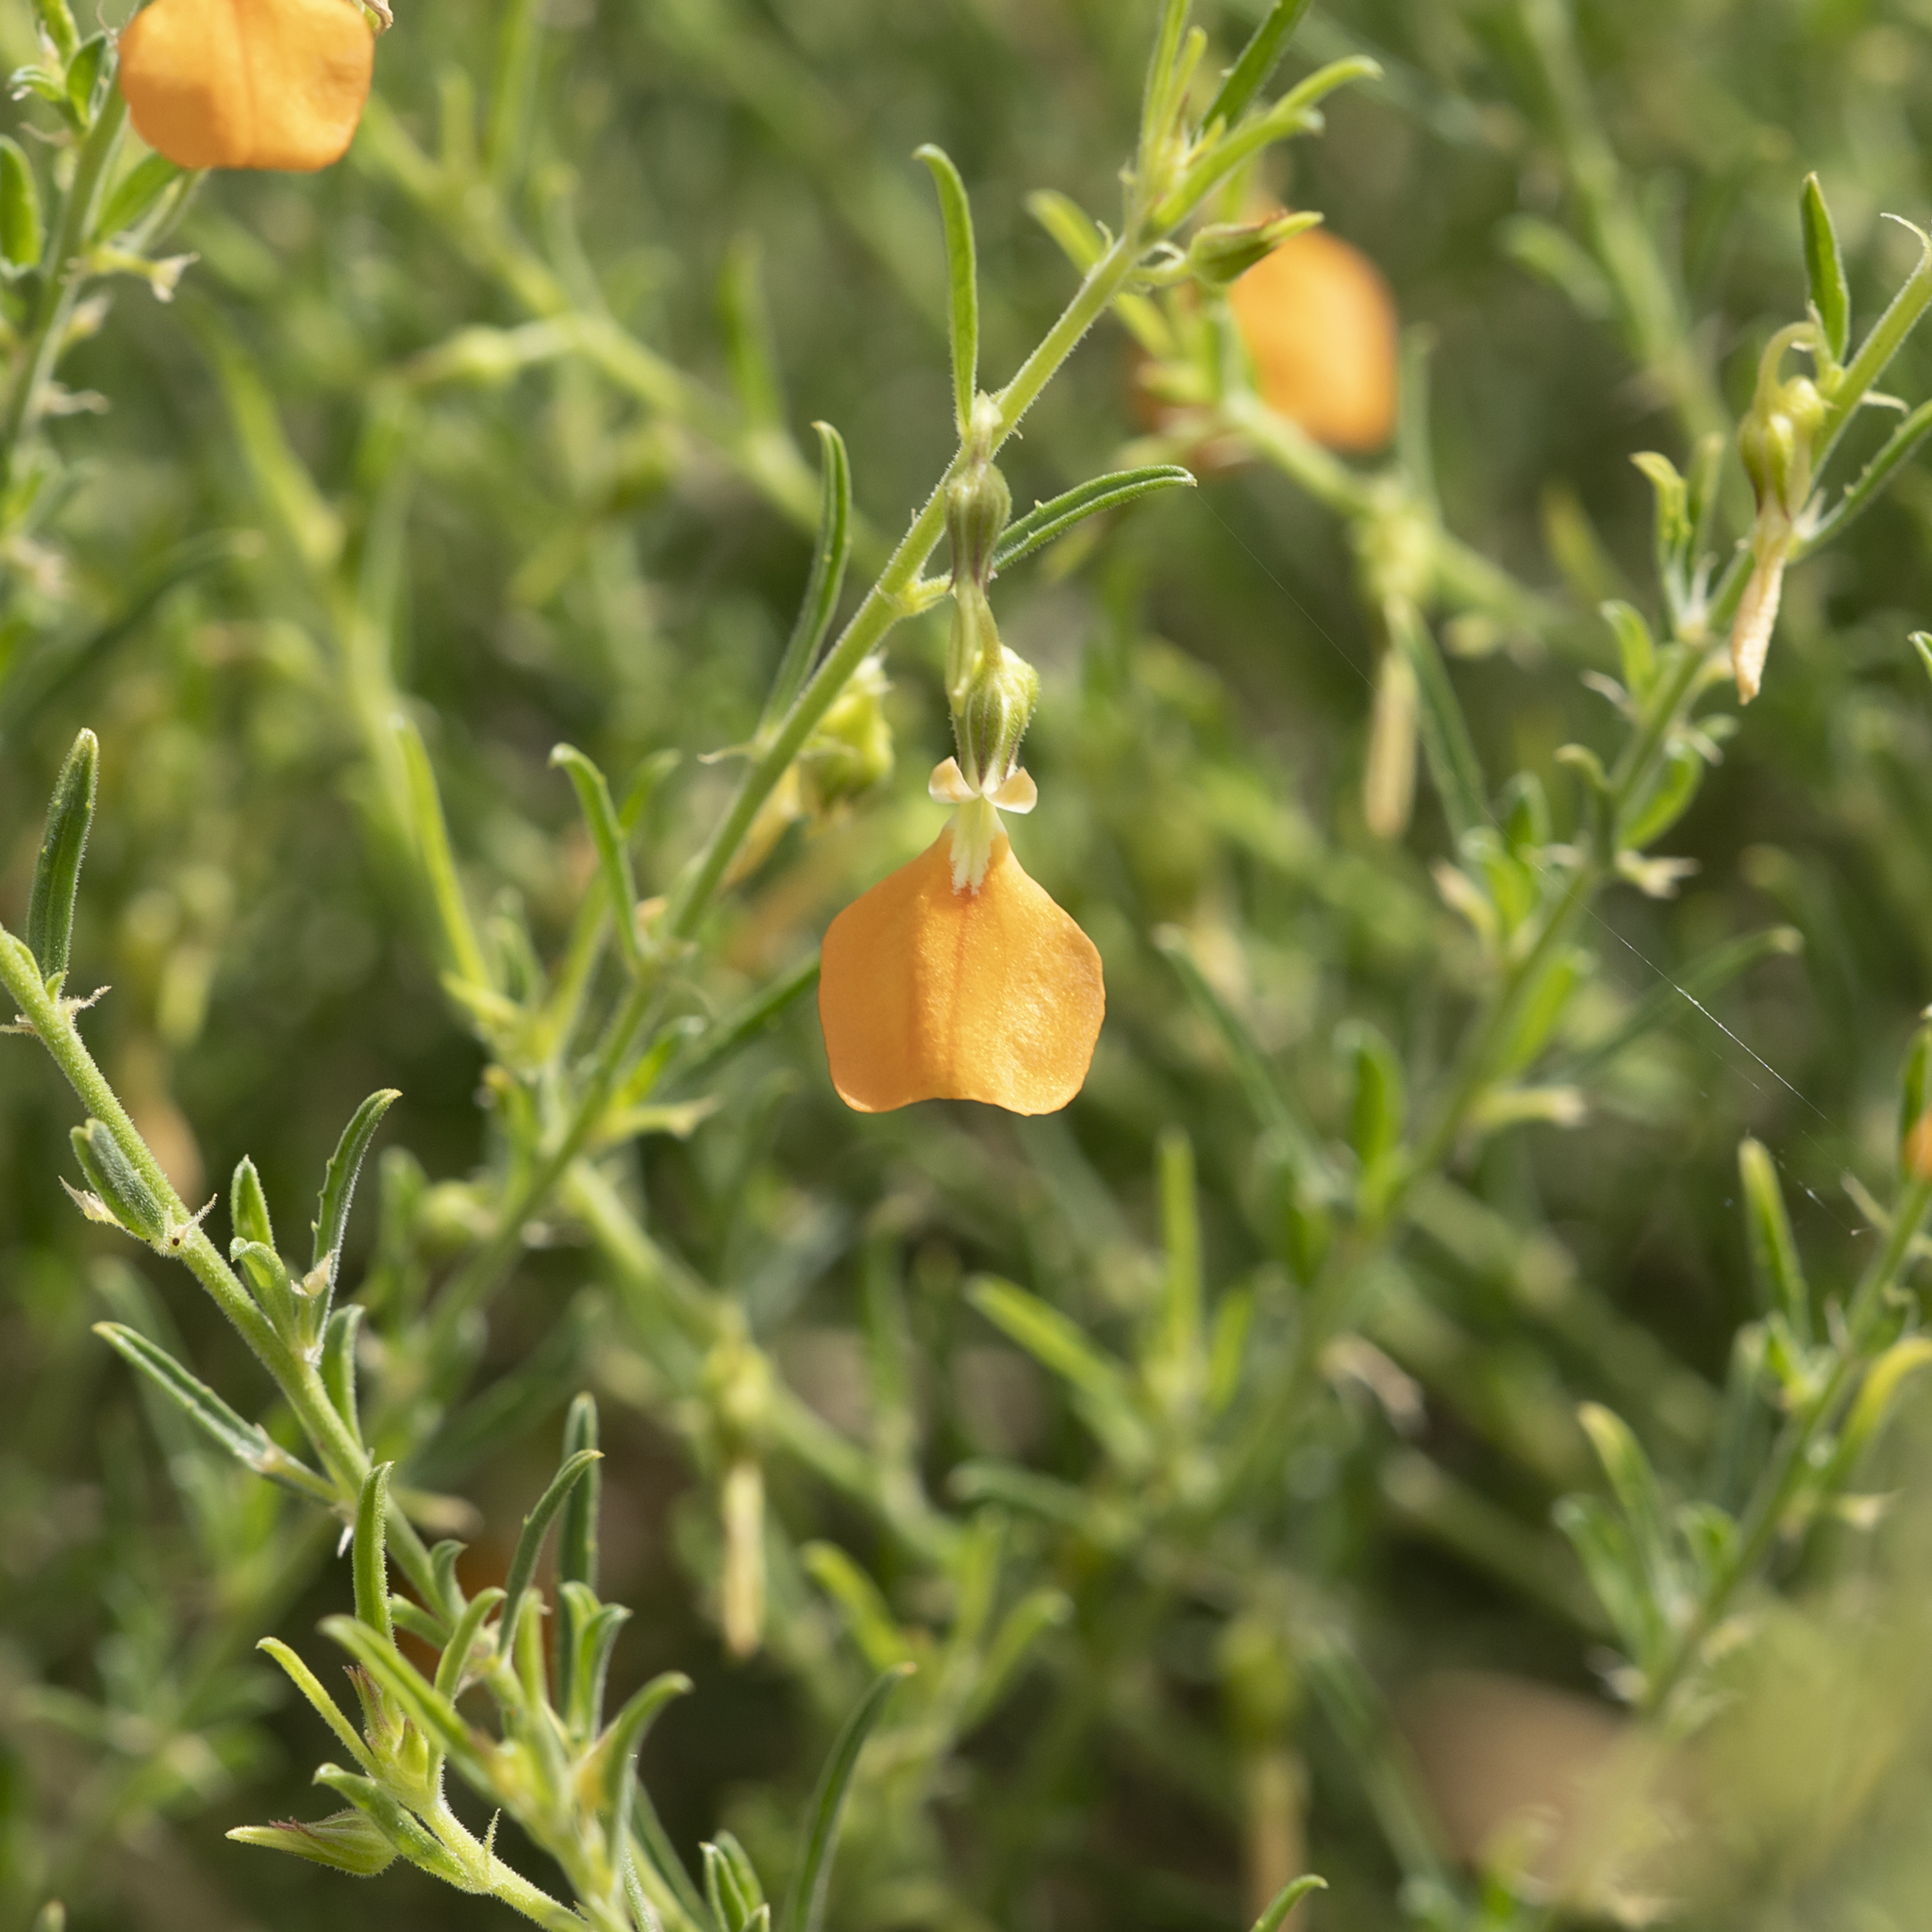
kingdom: Plantae
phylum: Tracheophyta
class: Magnoliopsida
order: Malpighiales
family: Violaceae
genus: Pigea
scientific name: Pigea aurantiaca
